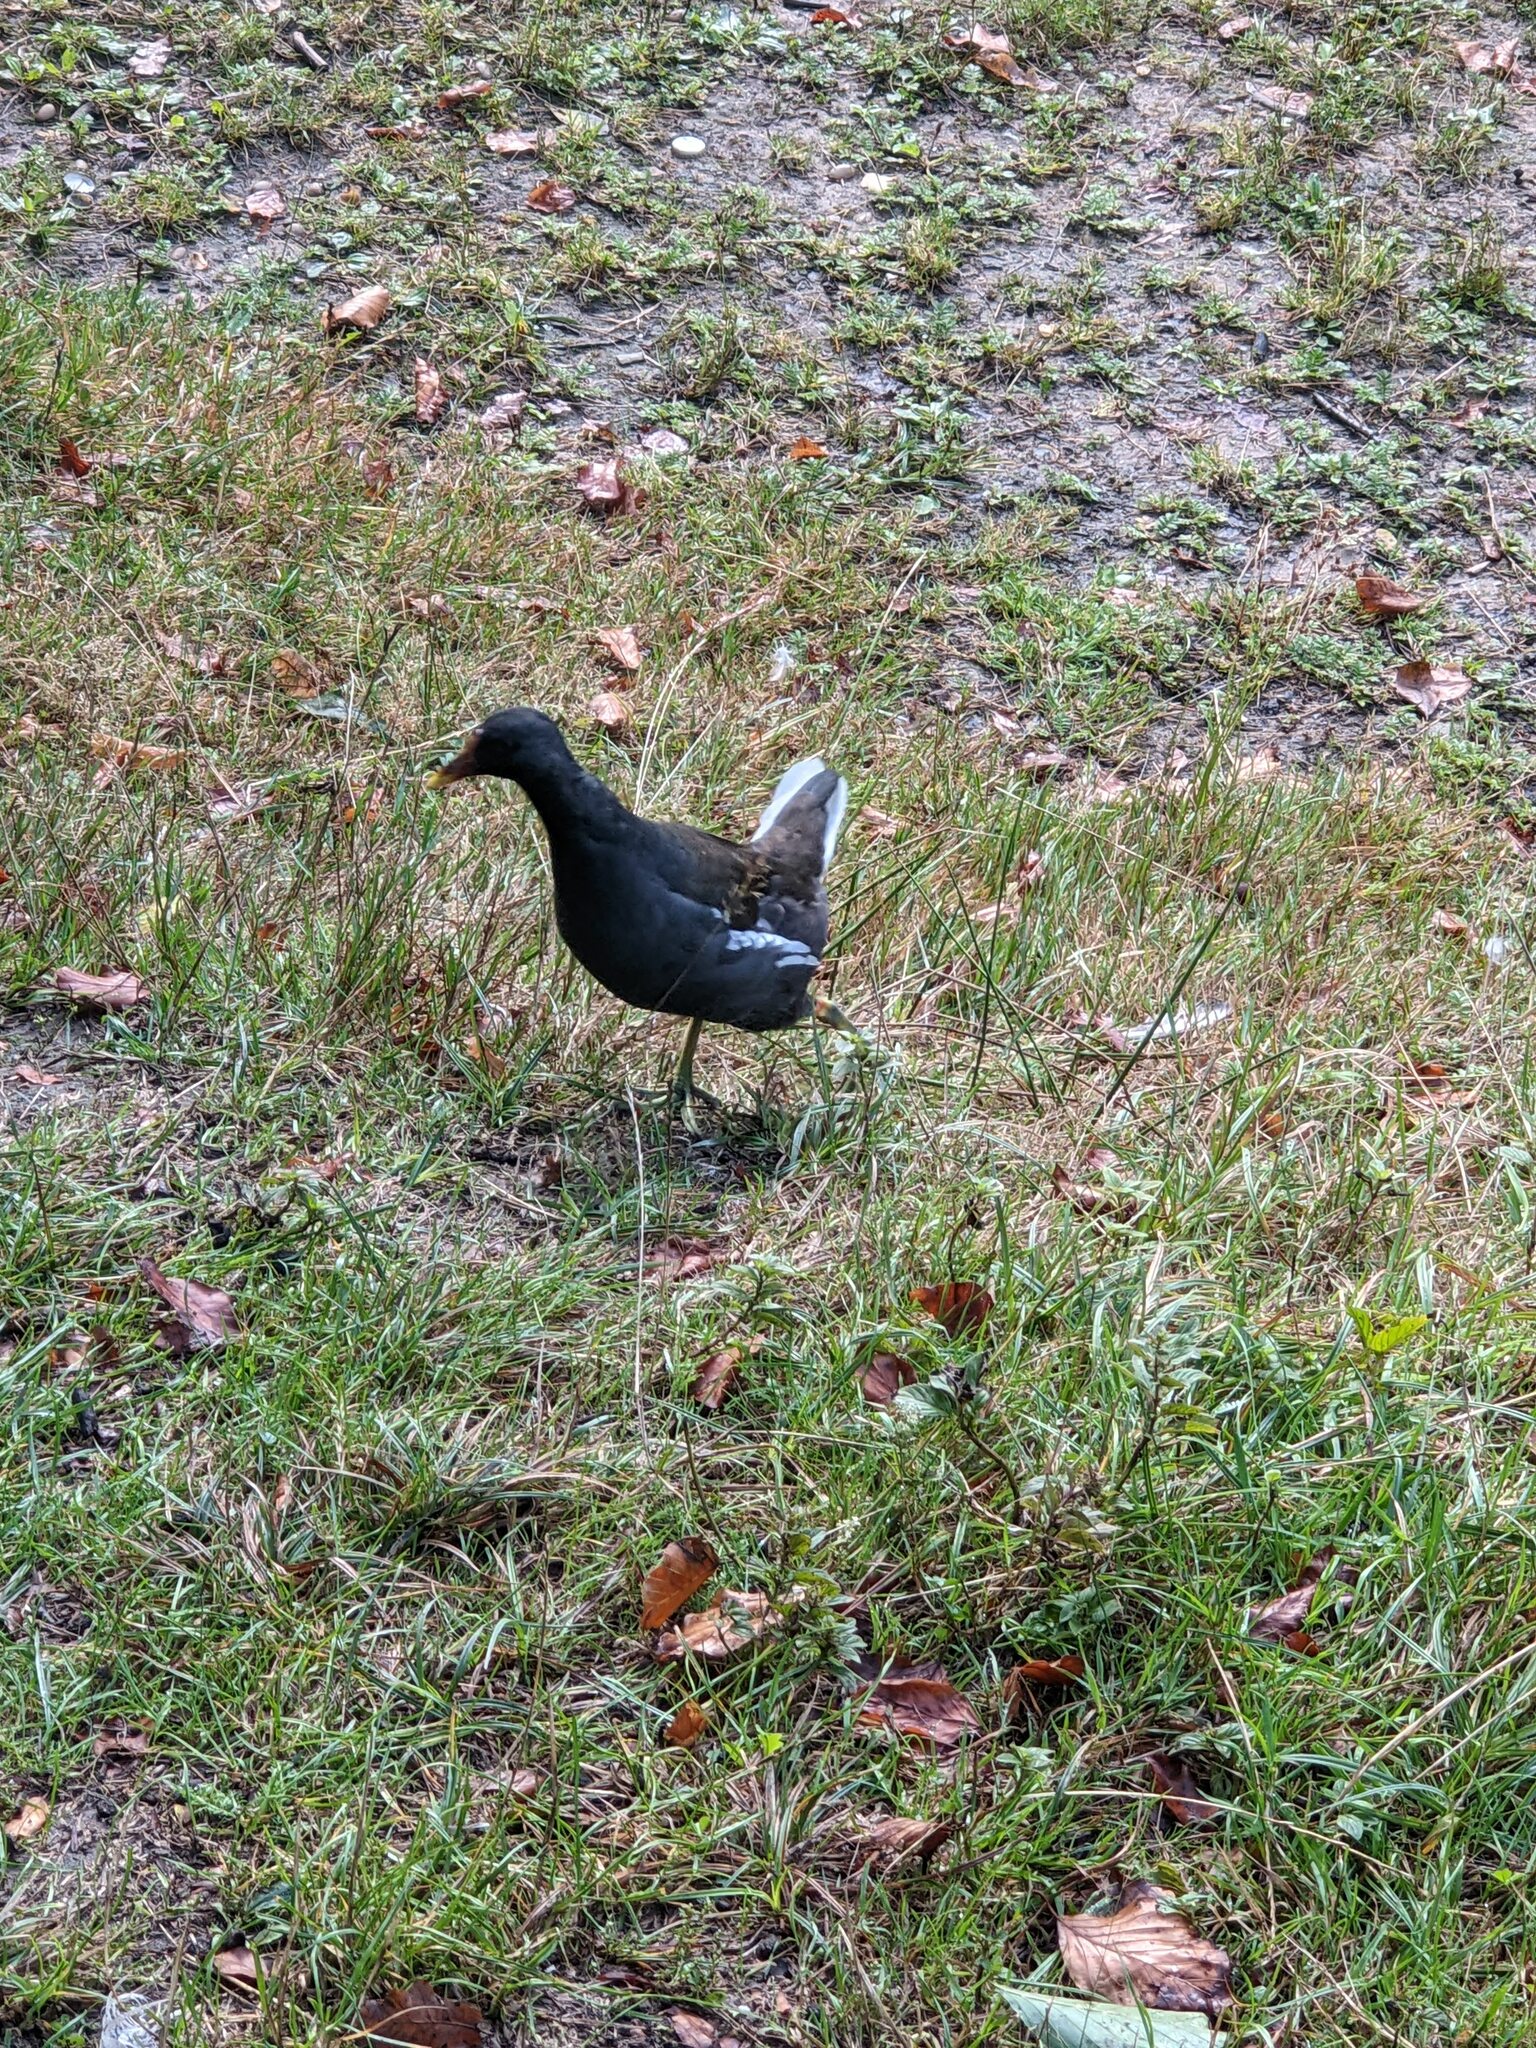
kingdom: Animalia
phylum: Chordata
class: Aves
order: Gruiformes
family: Rallidae
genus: Gallinula
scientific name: Gallinula chloropus
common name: Common moorhen
